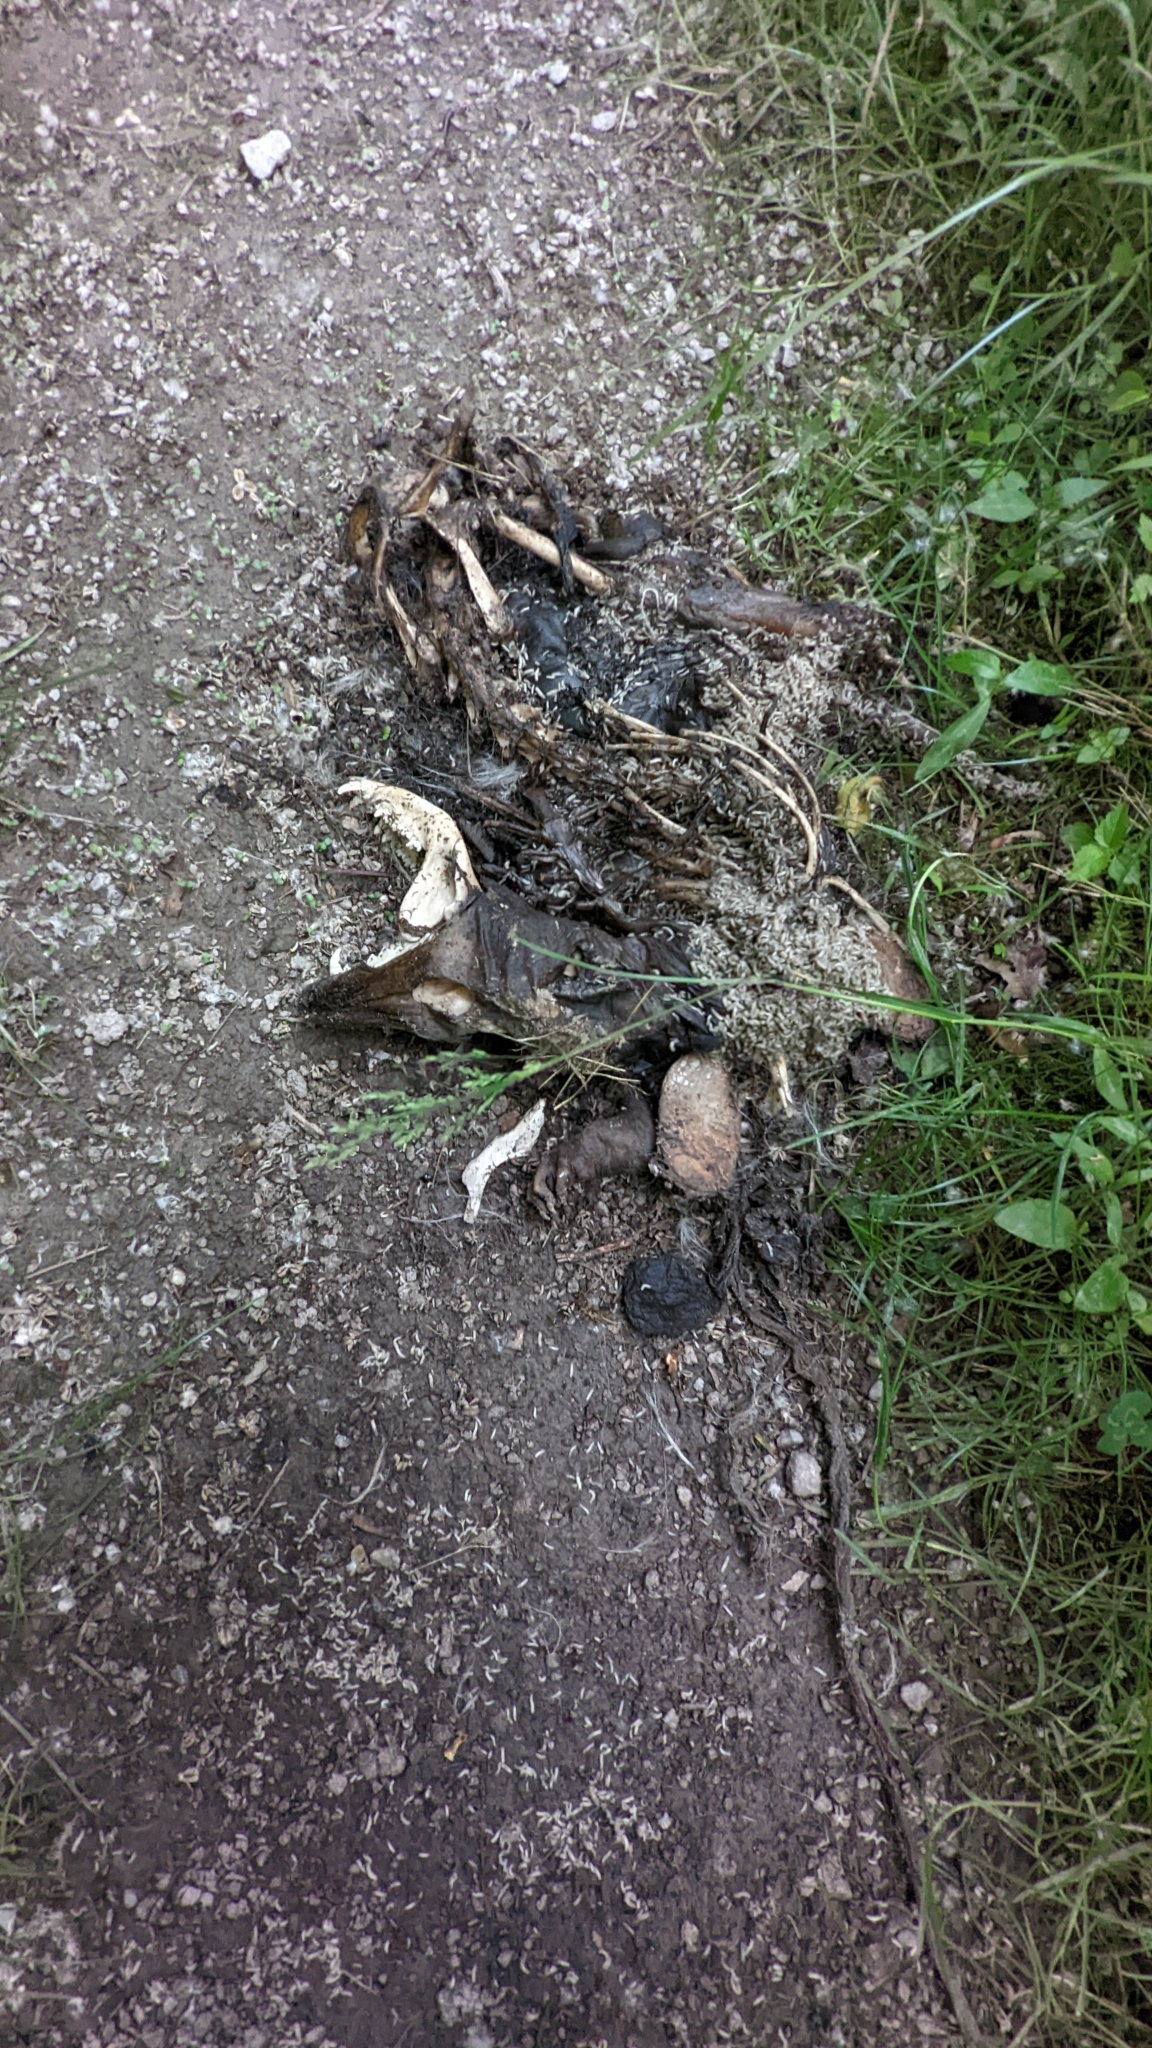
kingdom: Animalia
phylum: Chordata
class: Mammalia
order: Didelphimorphia
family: Didelphidae
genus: Didelphis
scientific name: Didelphis virginiana
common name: Virginia opossum
